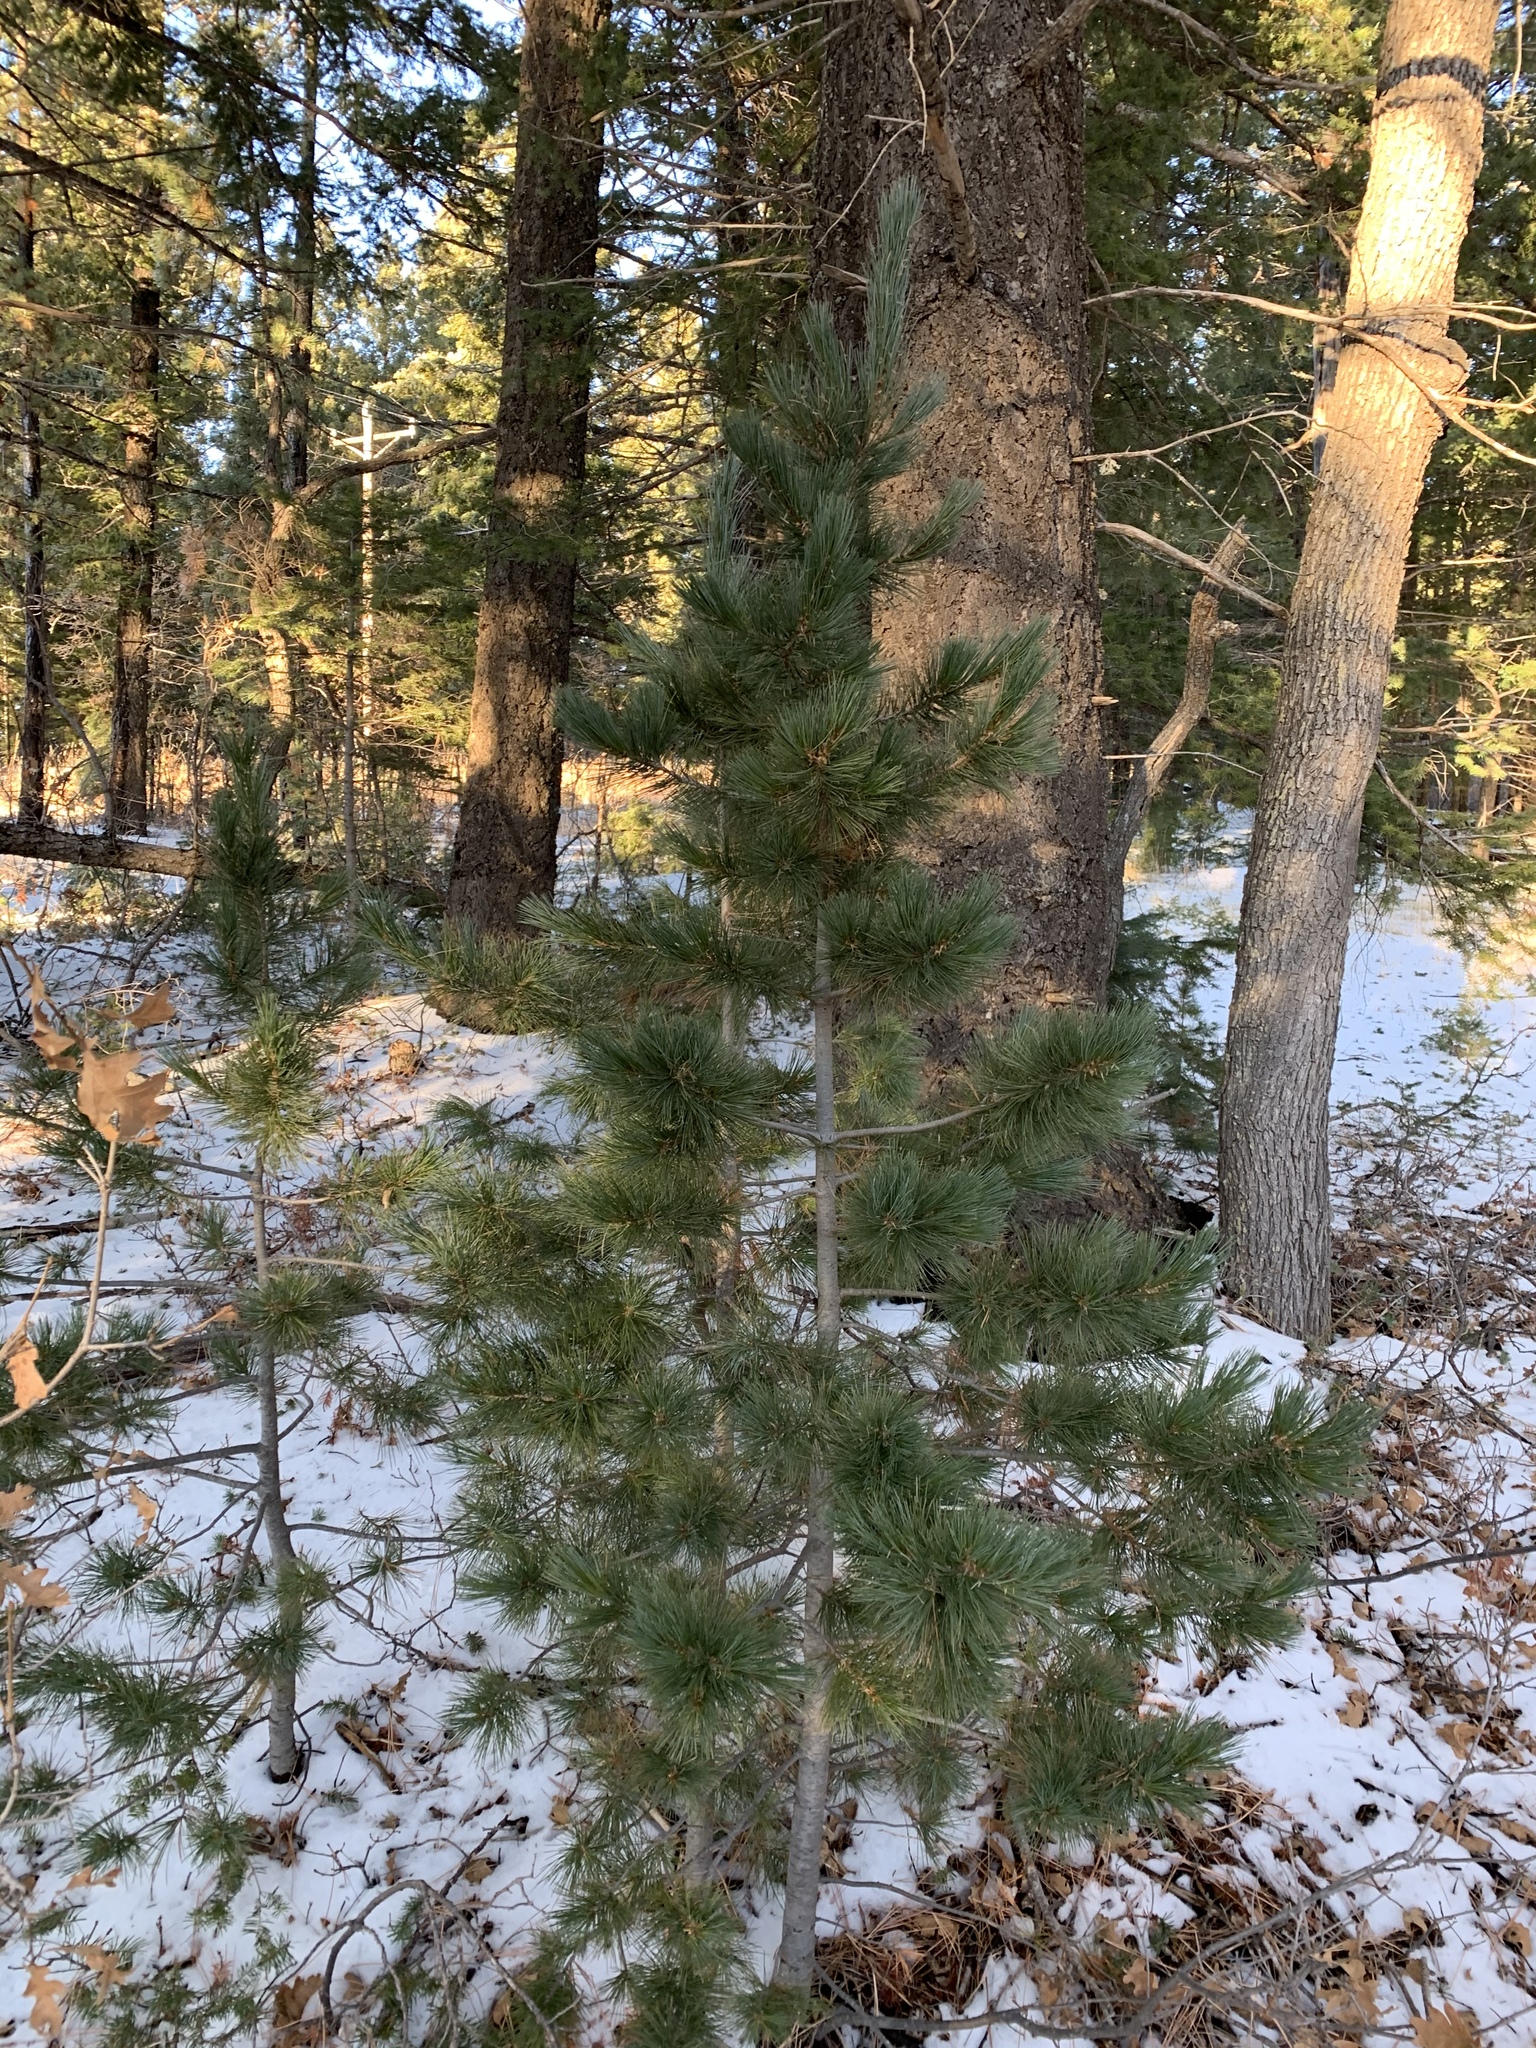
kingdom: Plantae
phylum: Tracheophyta
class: Pinopsida
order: Pinales
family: Pinaceae
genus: Pinus
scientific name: Pinus strobiformis
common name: Southwestern white pine
